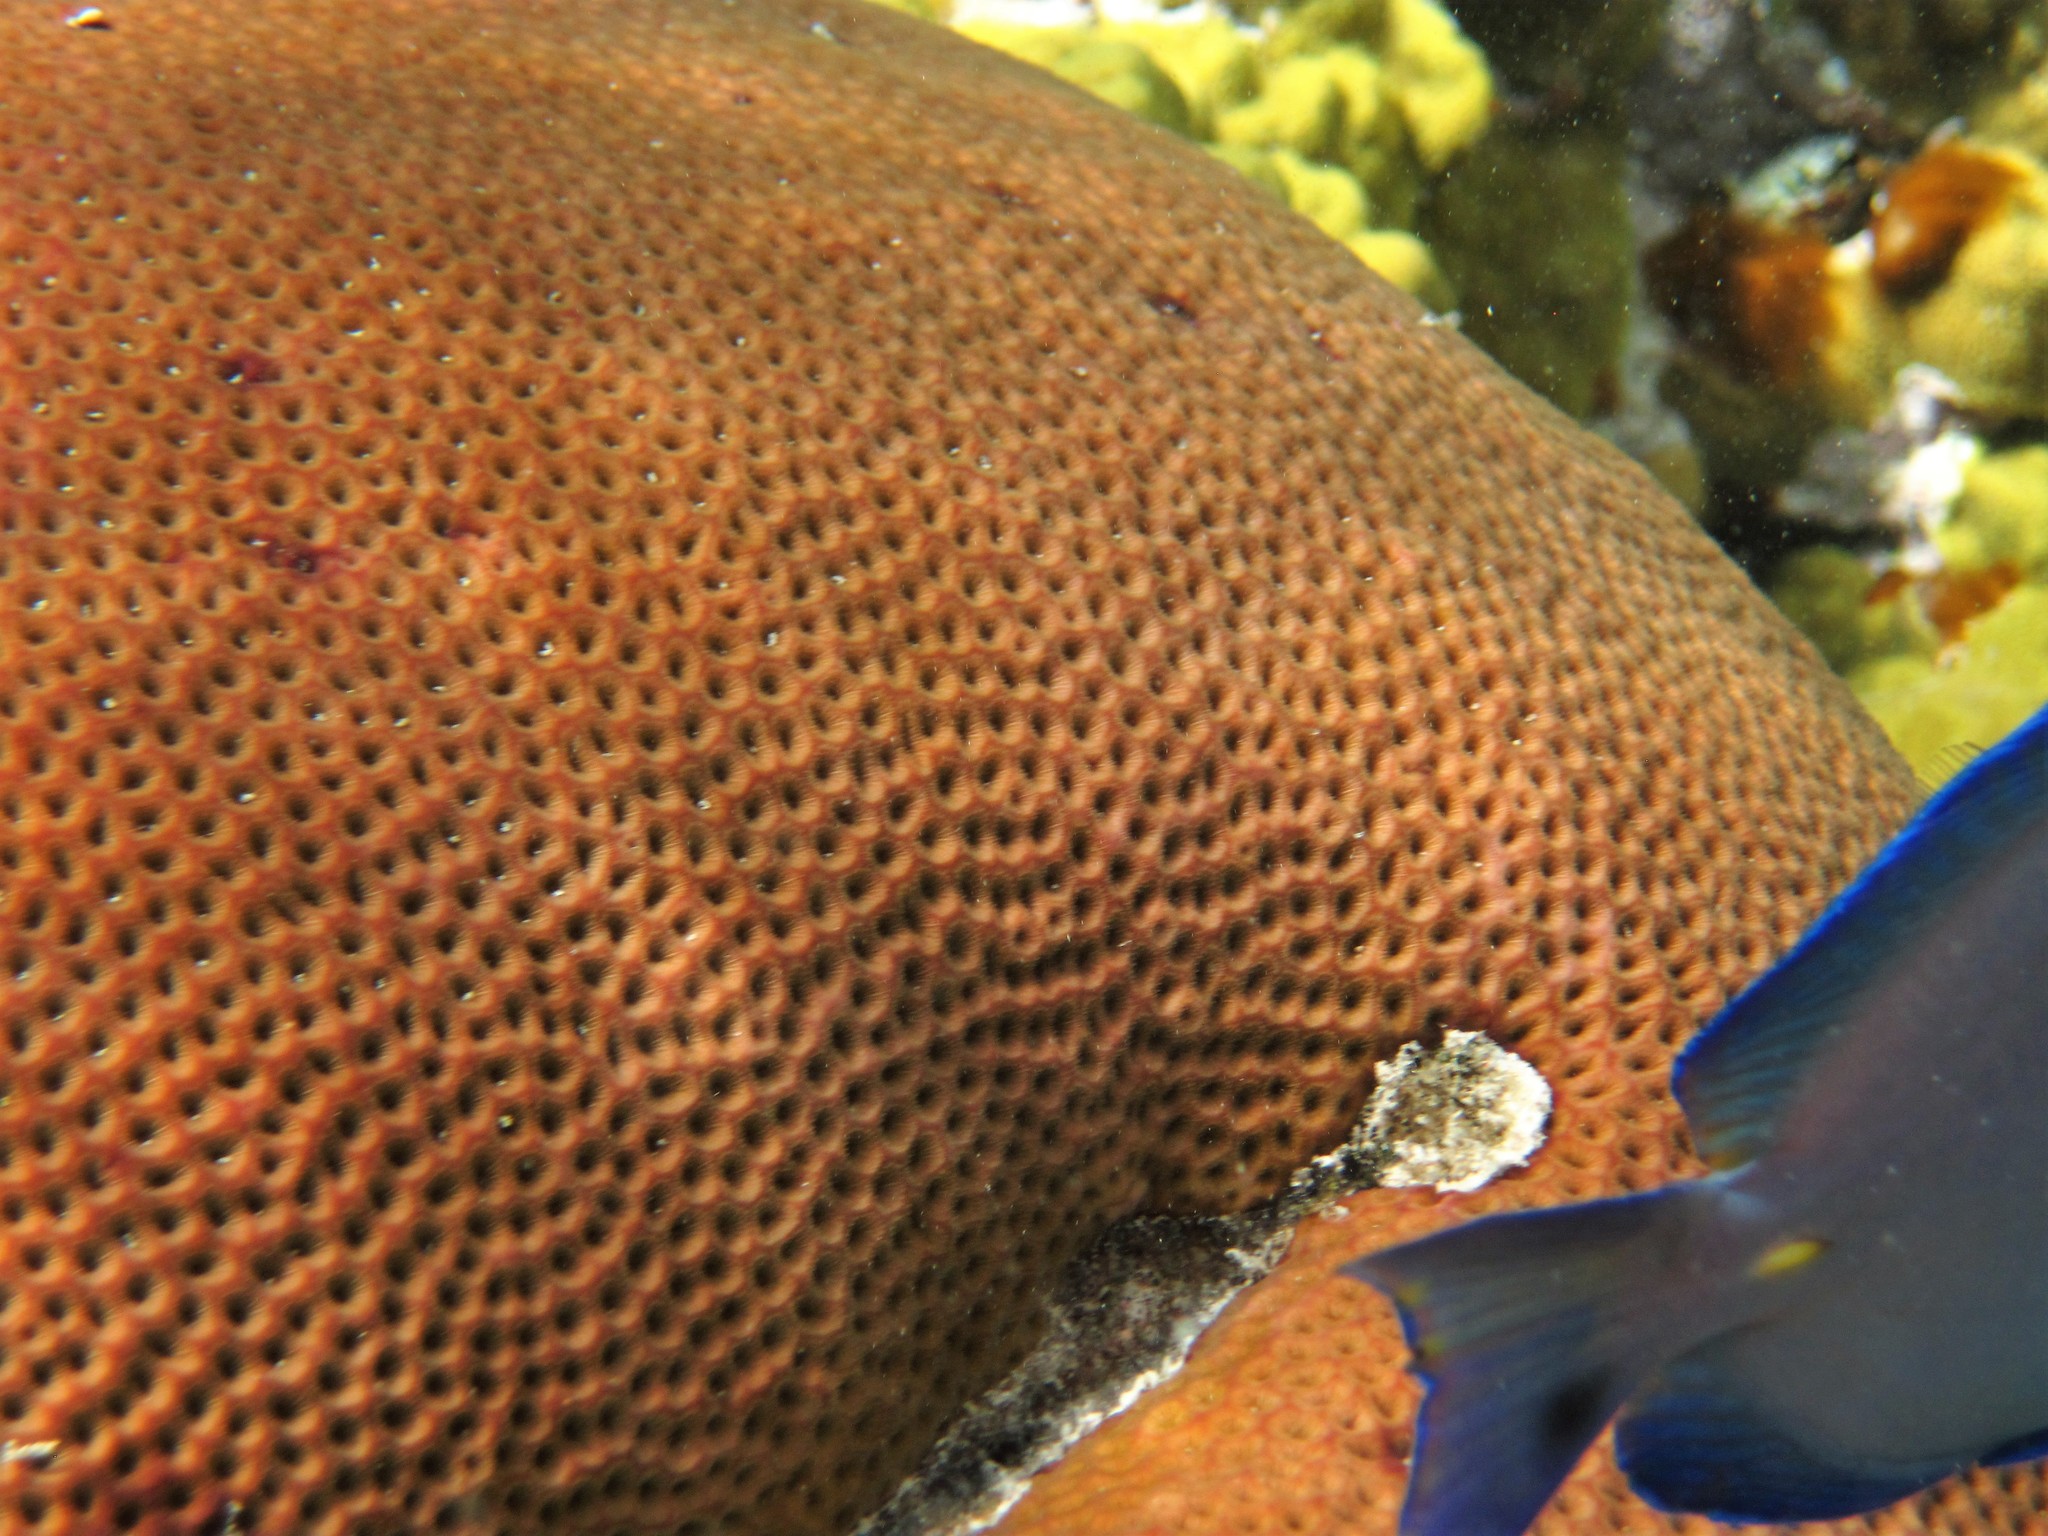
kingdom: Animalia
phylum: Cnidaria
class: Anthozoa
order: Scleractinia
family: Rhizangiidae
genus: Siderastrea
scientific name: Siderastrea siderea
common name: Massive starlet coral
